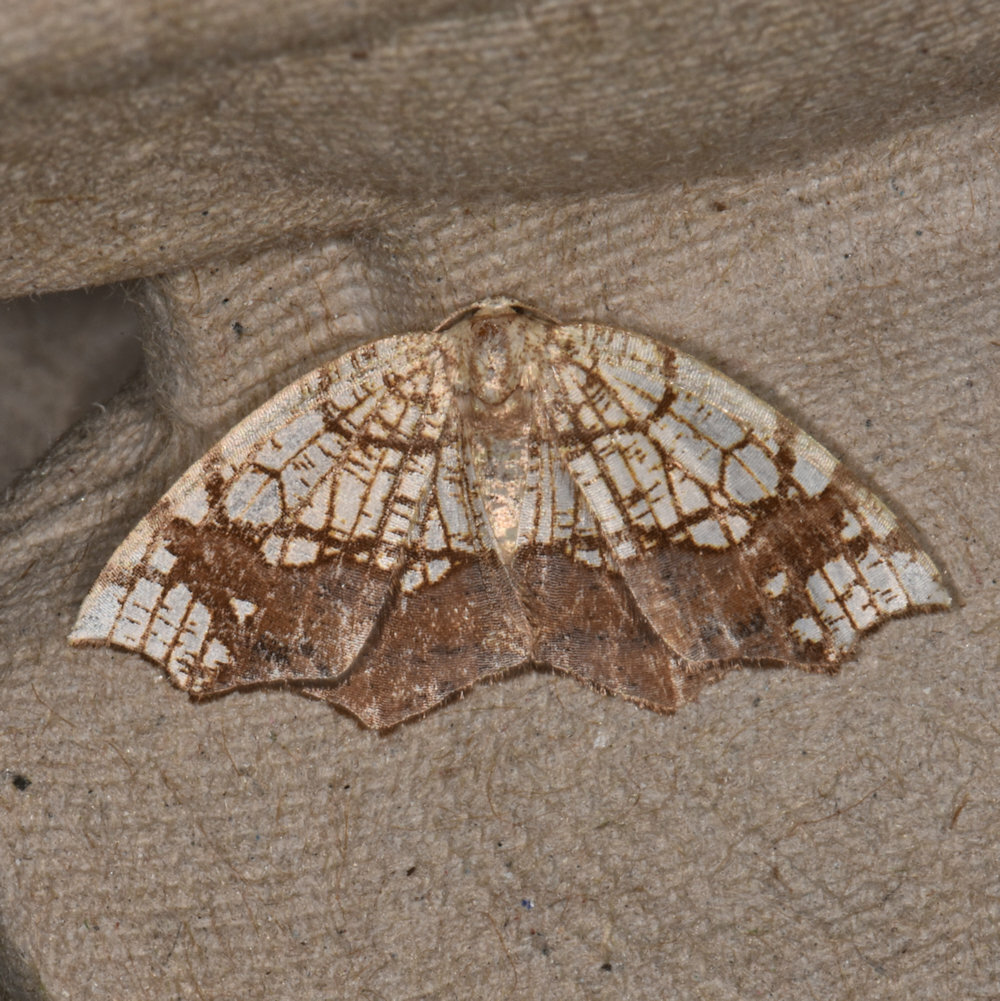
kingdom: Animalia
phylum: Arthropoda
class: Insecta
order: Lepidoptera
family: Geometridae
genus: Nematocampa
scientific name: Nematocampa resistaria
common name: Horned spanworm moth
